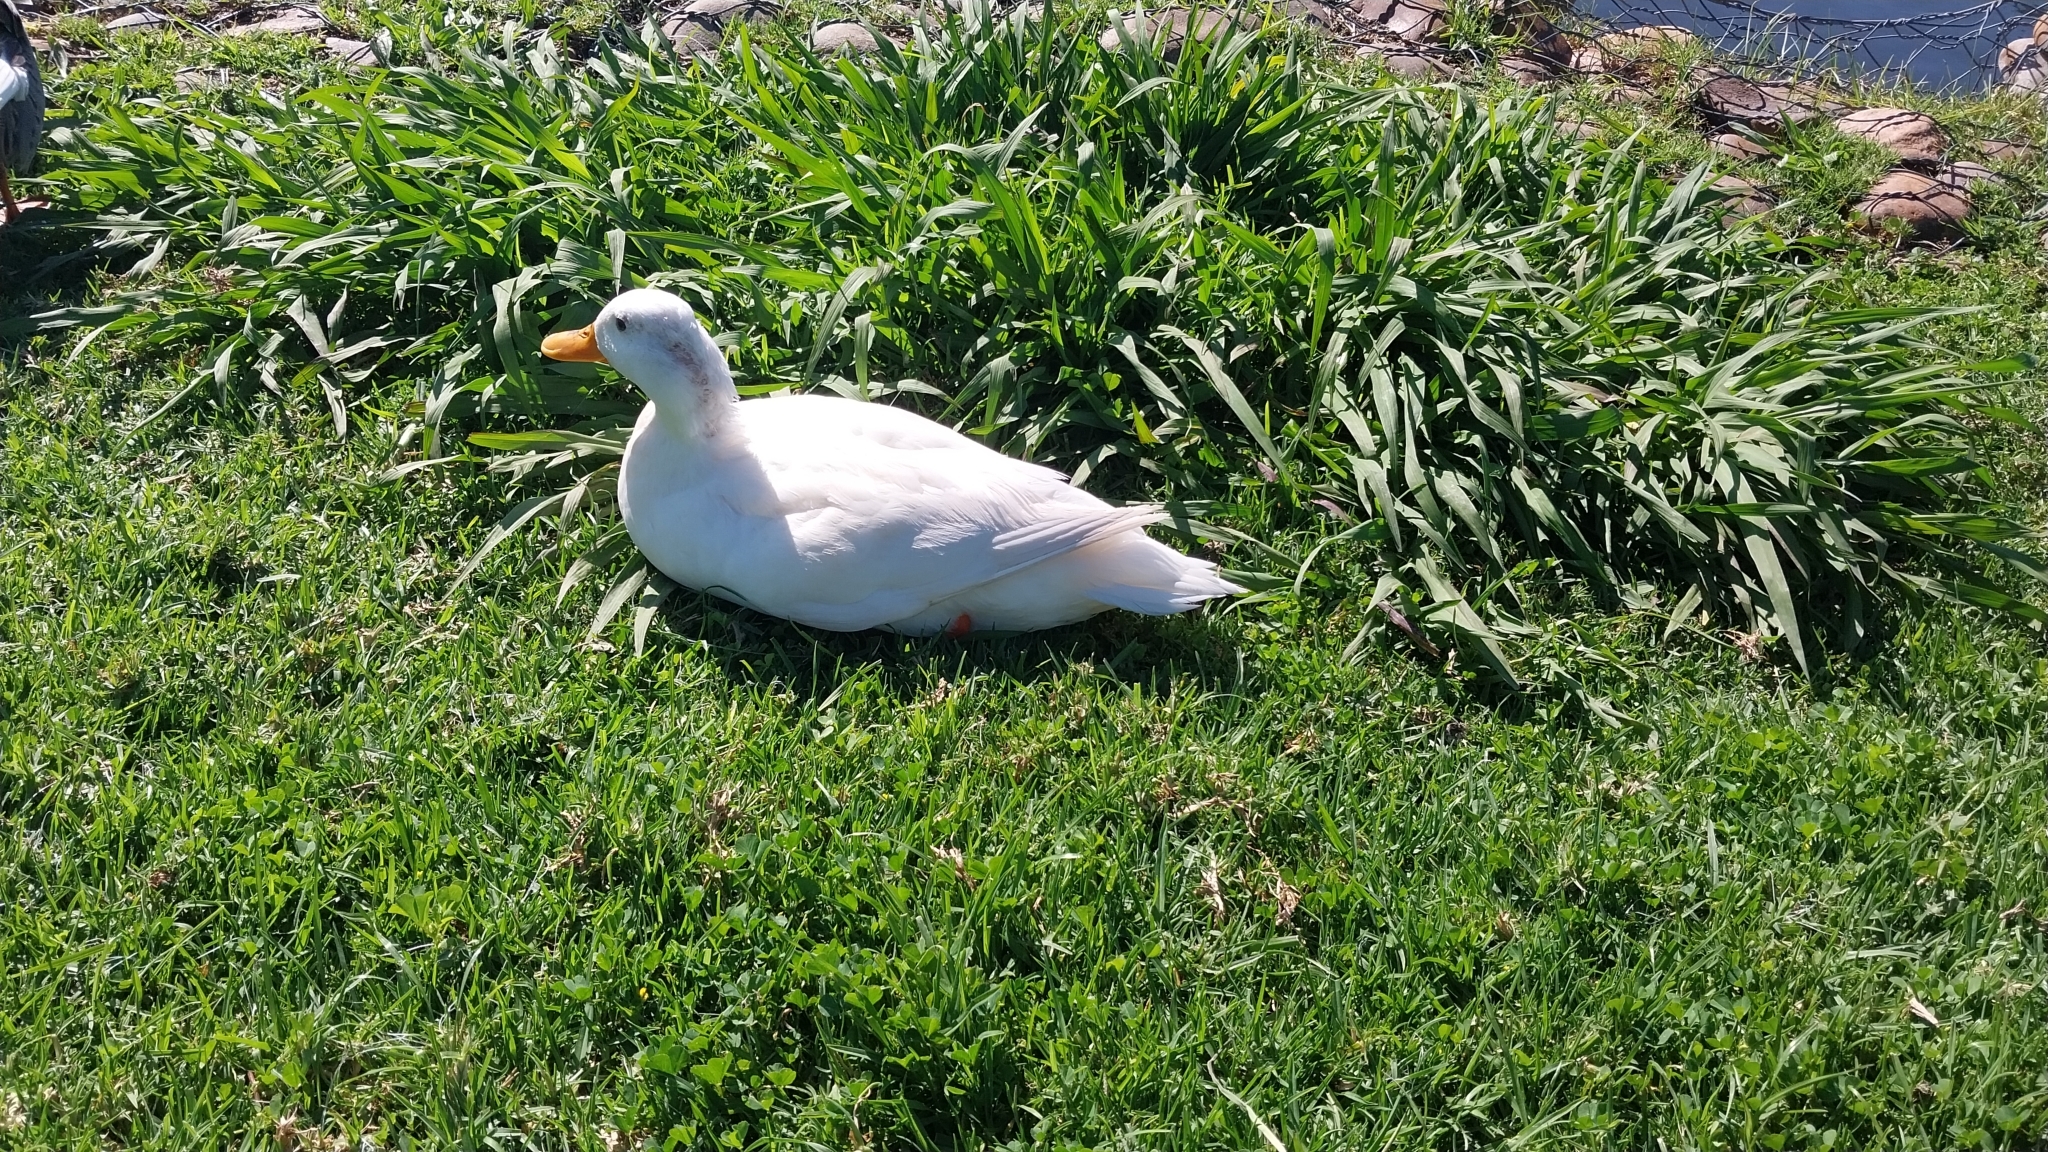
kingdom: Animalia
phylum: Chordata
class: Aves
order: Anseriformes
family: Anatidae
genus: Anas
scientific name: Anas platyrhynchos
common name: Mallard
